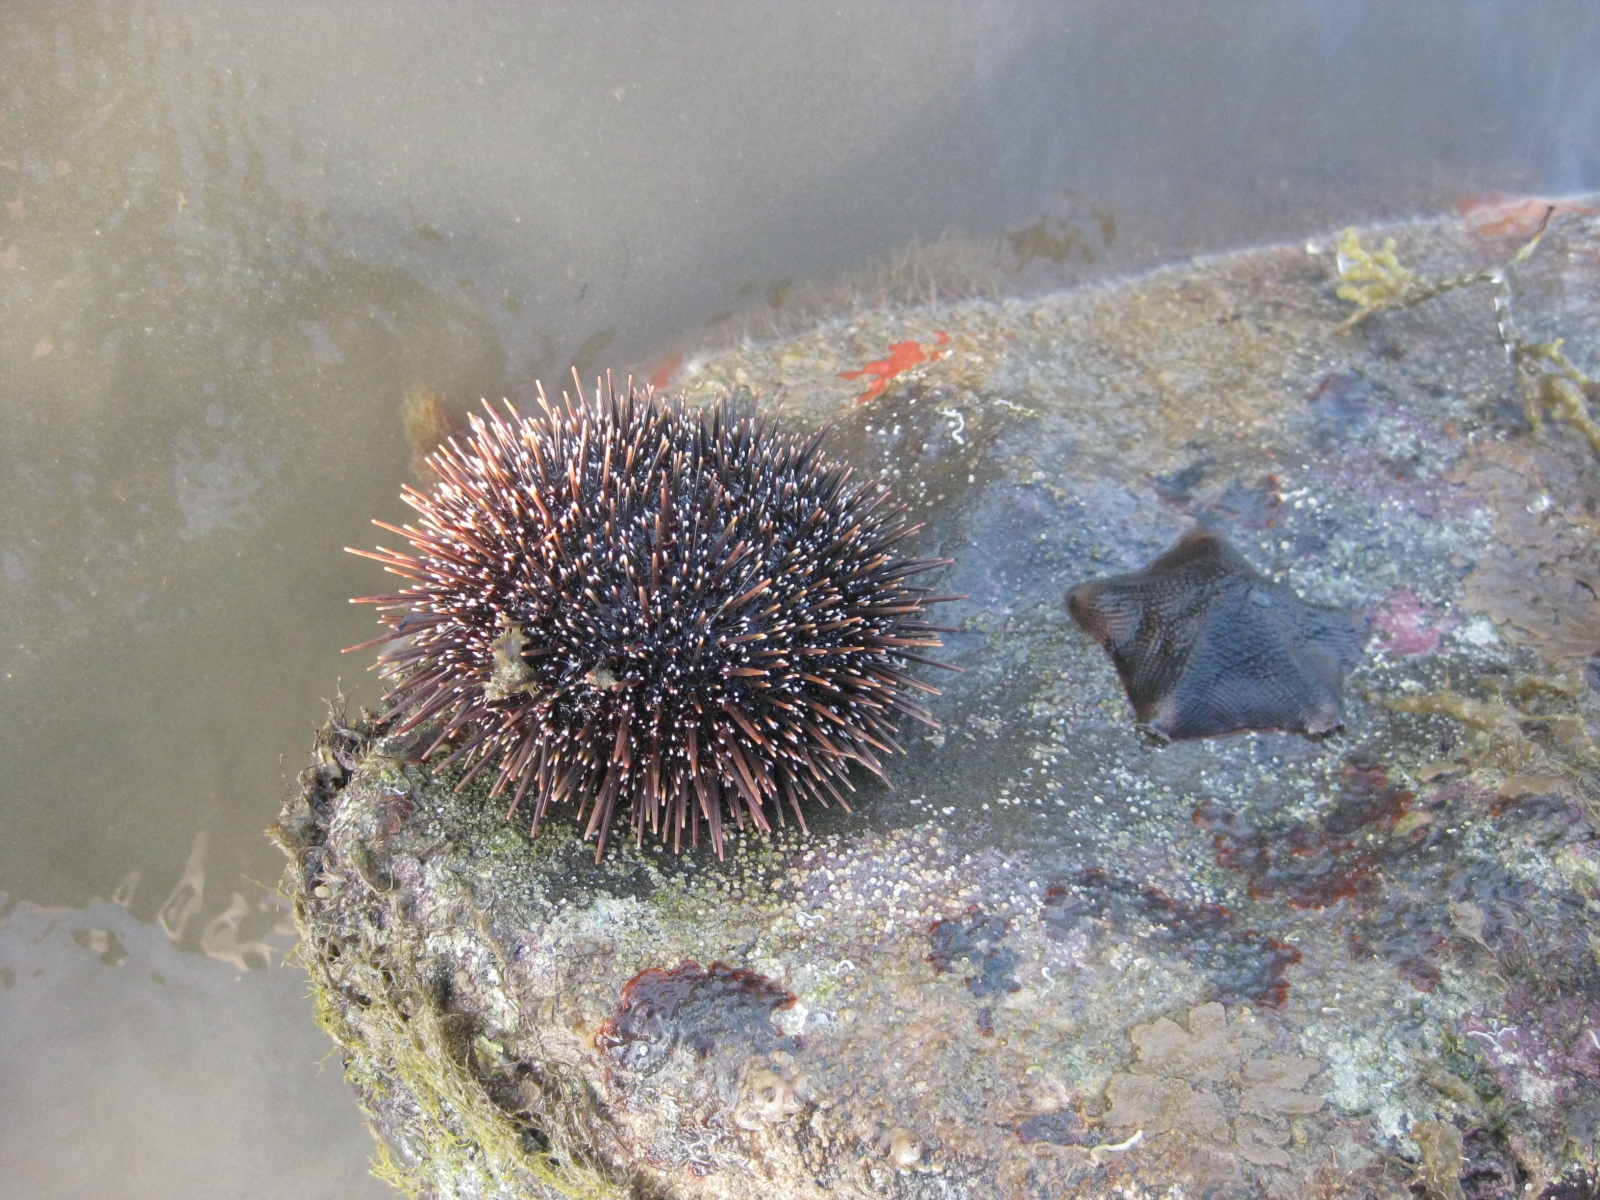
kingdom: Animalia
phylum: Echinodermata
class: Echinoidea
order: Camarodonta
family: Echinometridae
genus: Evechinus
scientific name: Evechinus chloroticus
